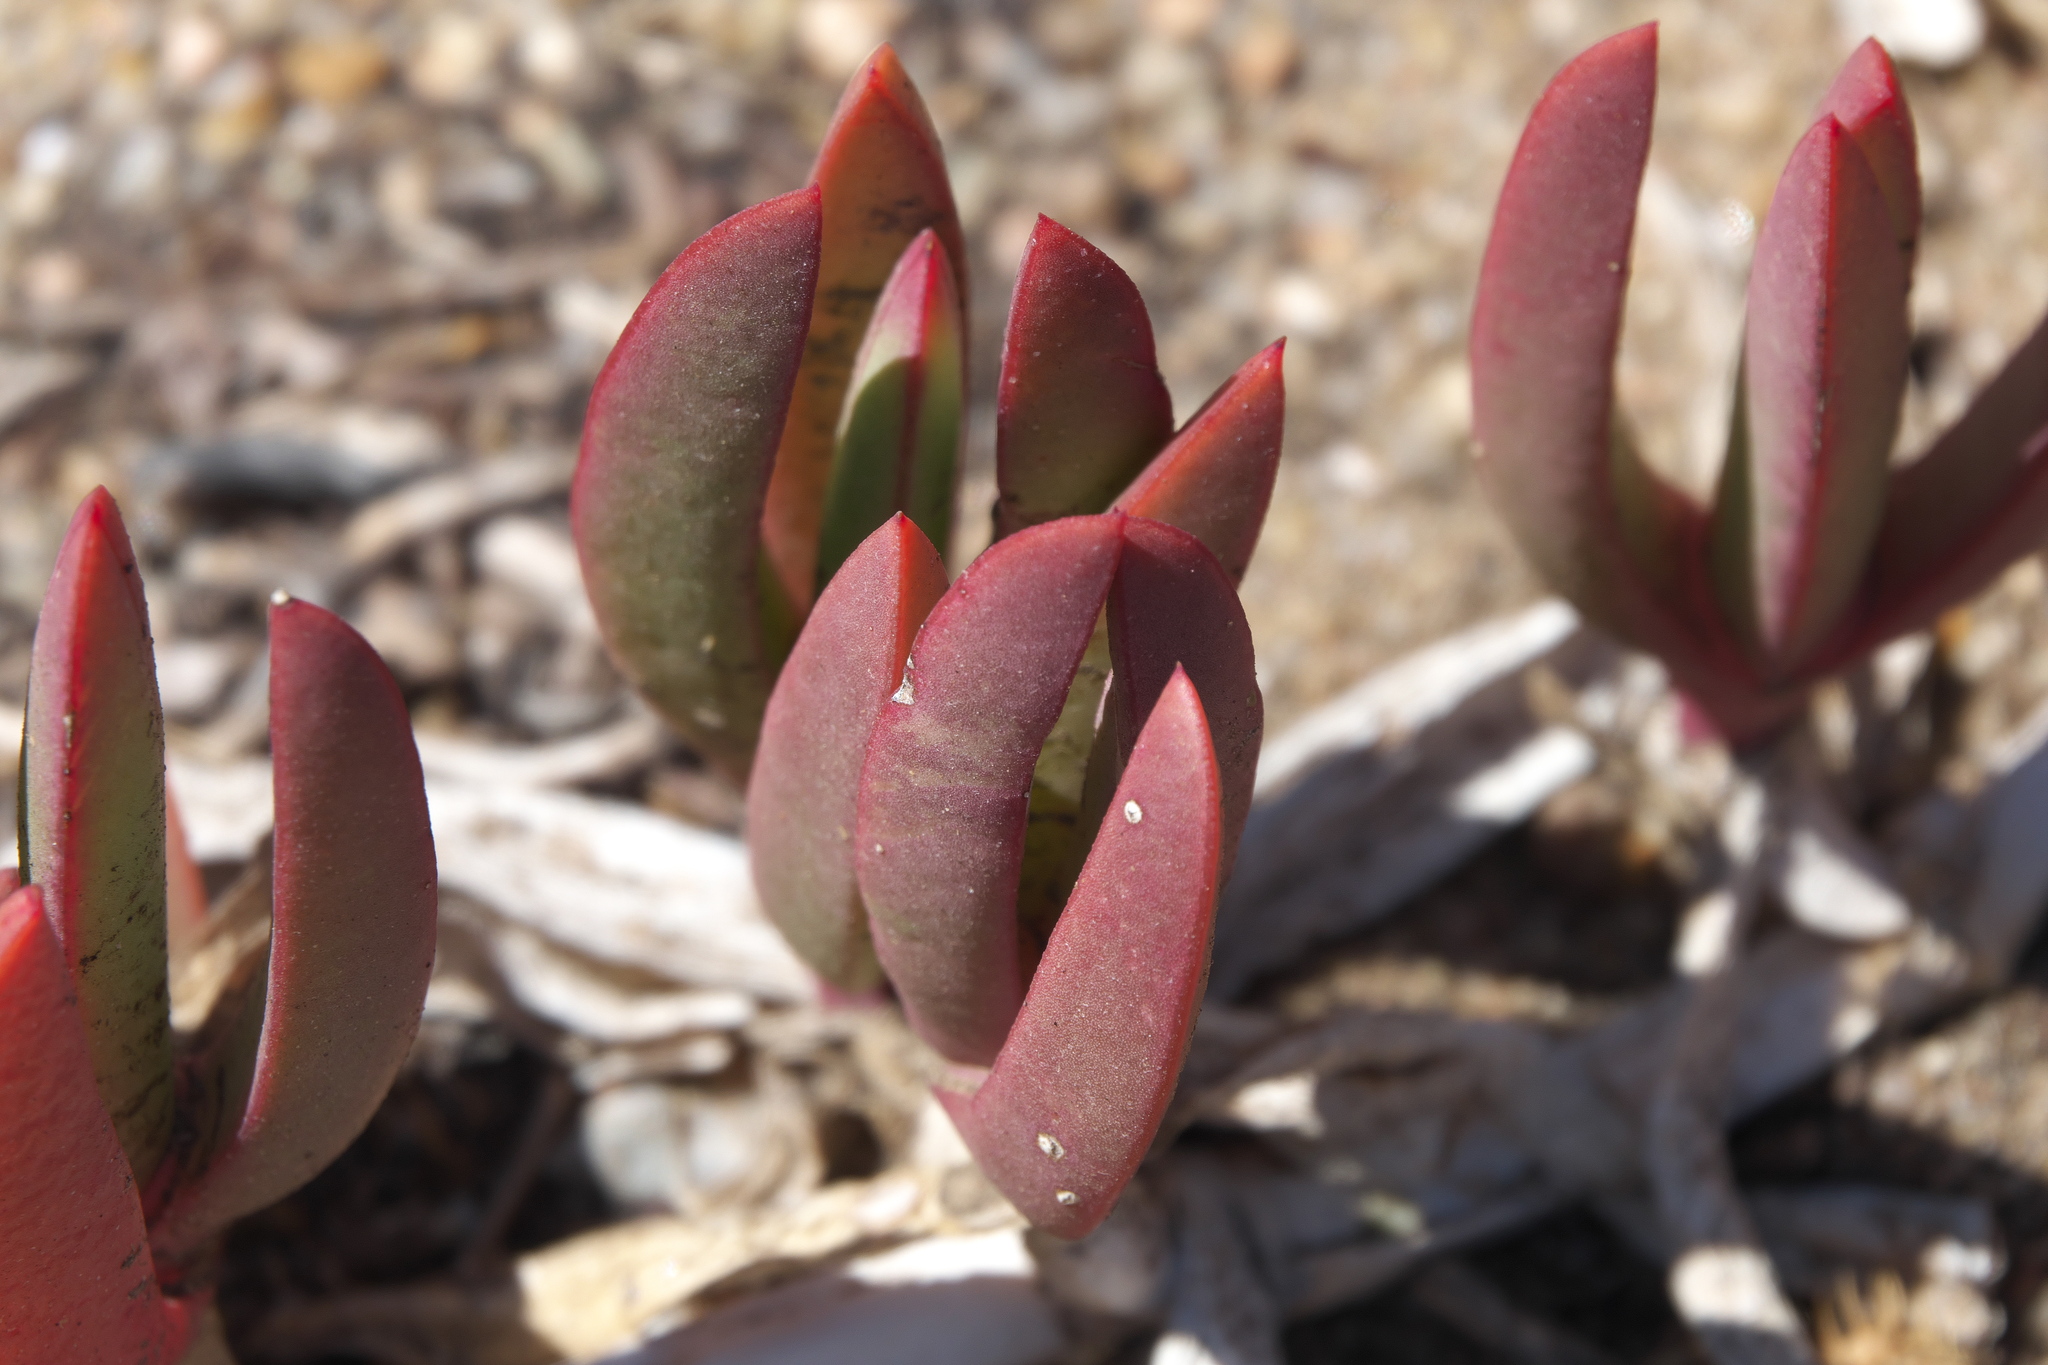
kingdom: Plantae
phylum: Tracheophyta
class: Magnoliopsida
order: Caryophyllales
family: Aizoaceae
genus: Carpobrotus
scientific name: Carpobrotus virescens
